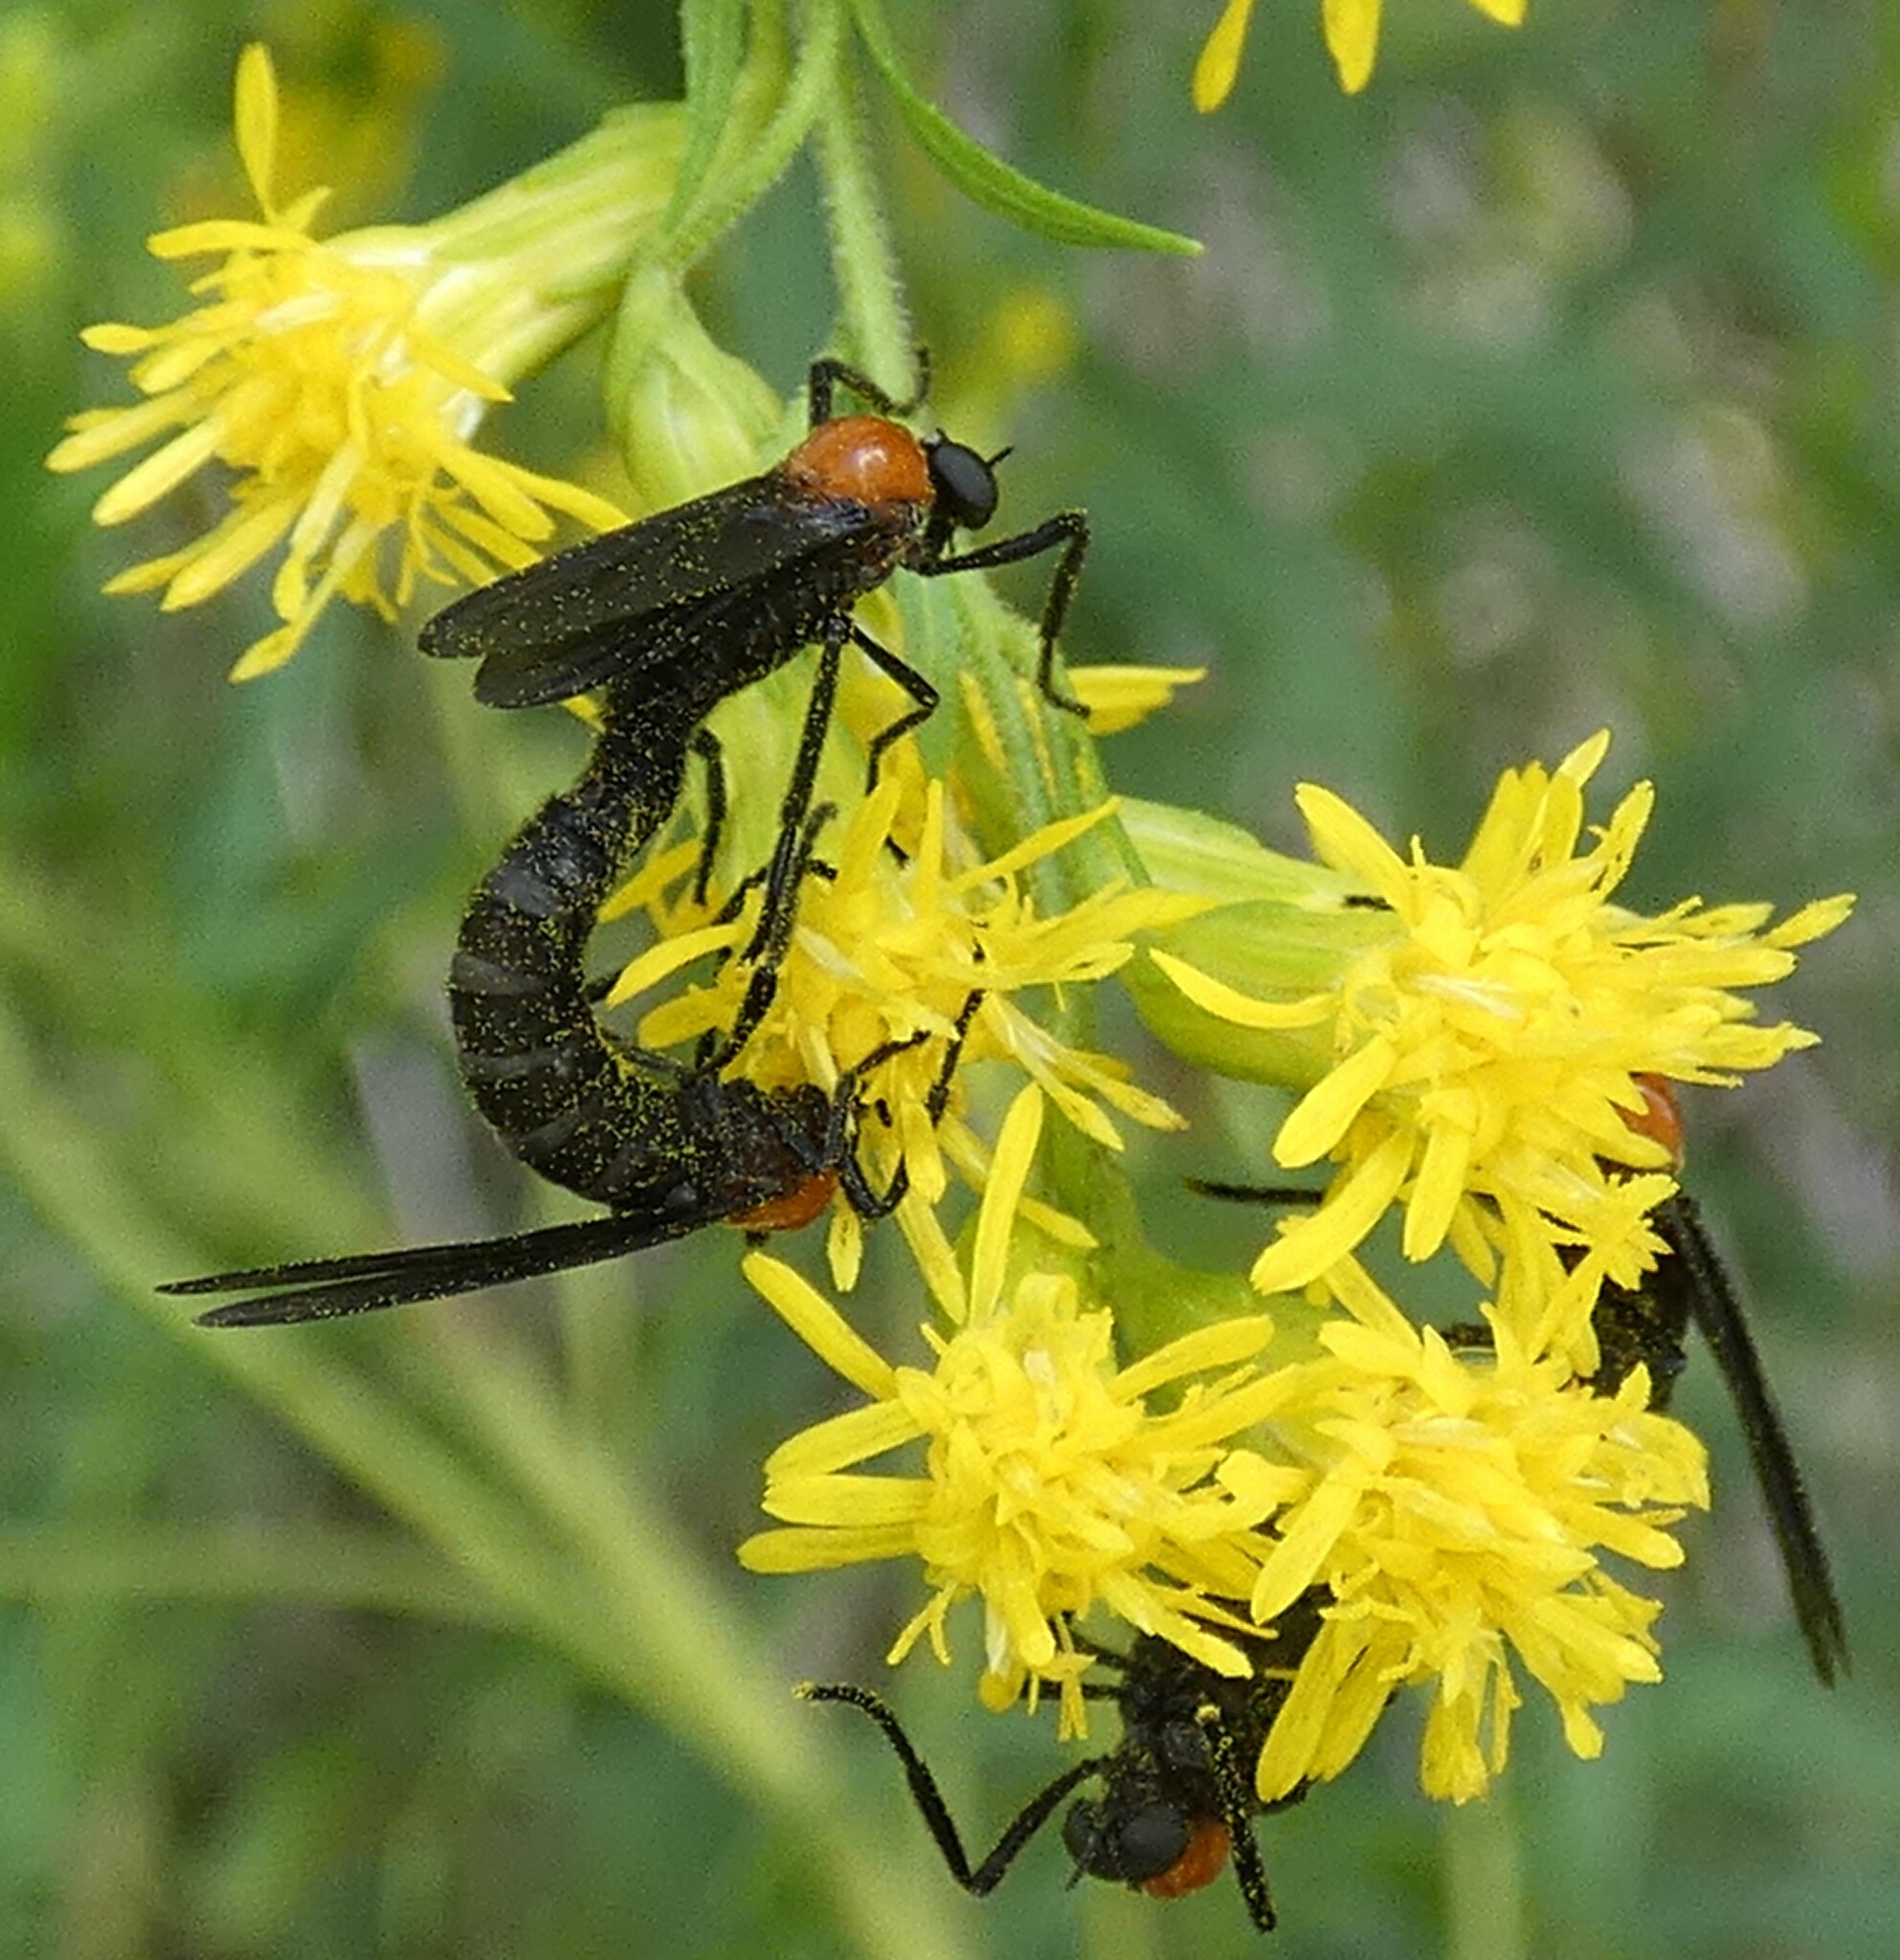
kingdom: Animalia
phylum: Arthropoda
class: Insecta
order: Diptera
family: Bibionidae
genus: Plecia
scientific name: Plecia nearctica
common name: March fly
